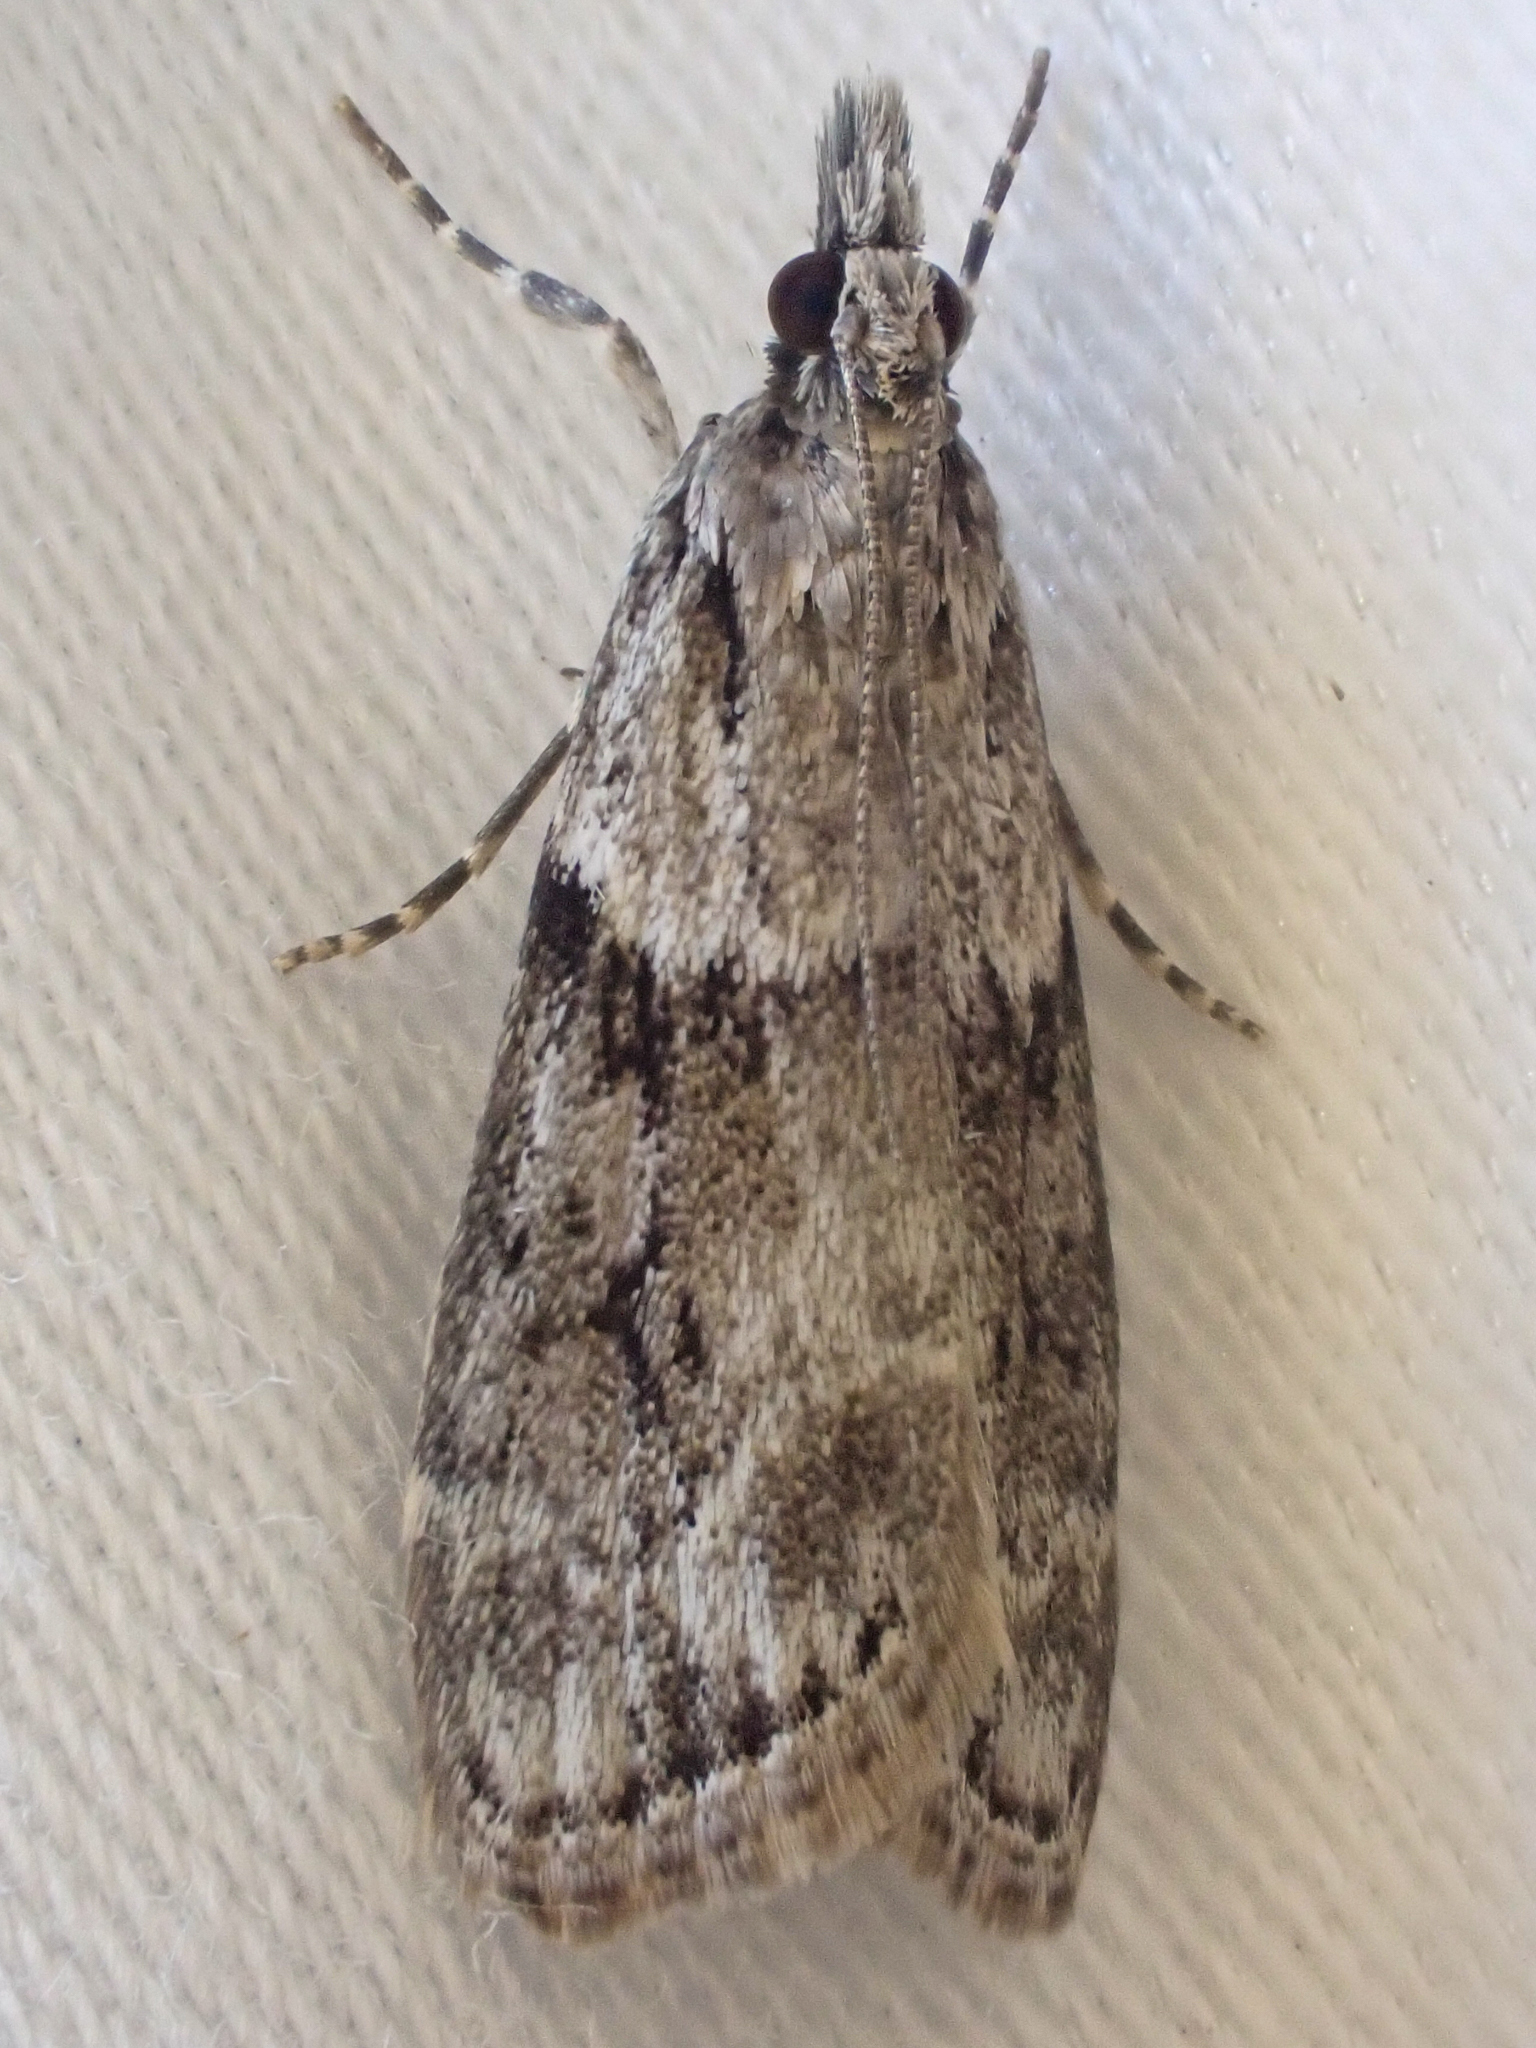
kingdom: Animalia
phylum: Arthropoda
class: Insecta
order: Lepidoptera
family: Crambidae
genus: Scoparia
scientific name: Scoparia biplagialis
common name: Double-striped scoparia moth
